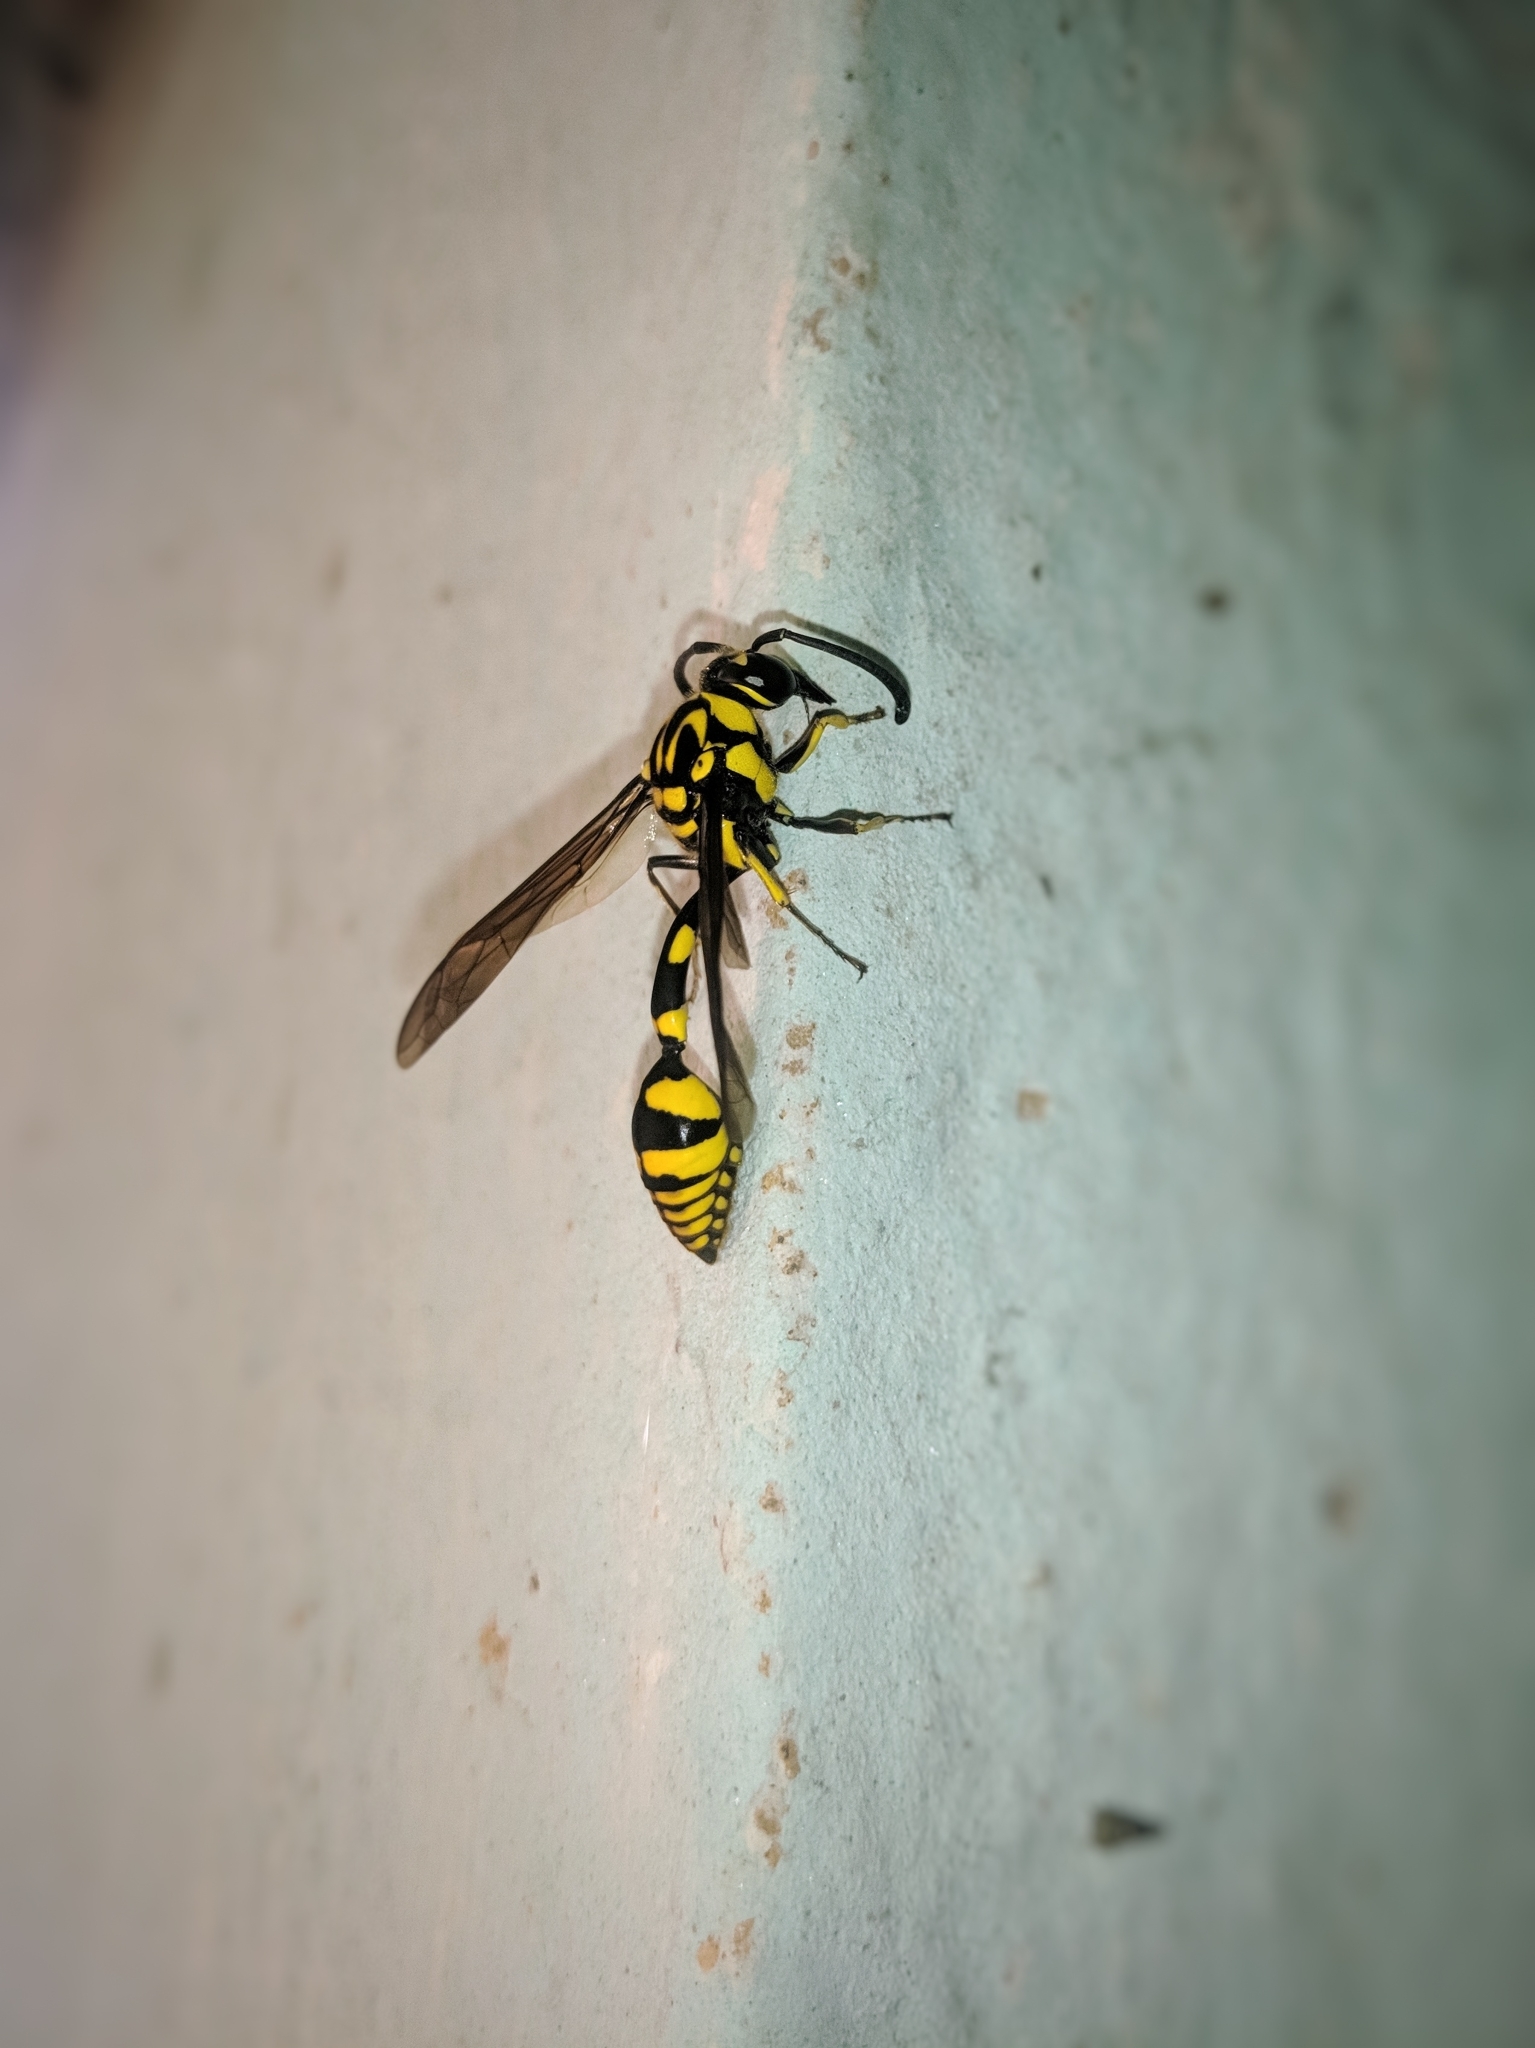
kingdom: Animalia
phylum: Arthropoda
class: Insecta
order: Hymenoptera
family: Eumenidae
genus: Phimenes
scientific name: Phimenes flavopictus
